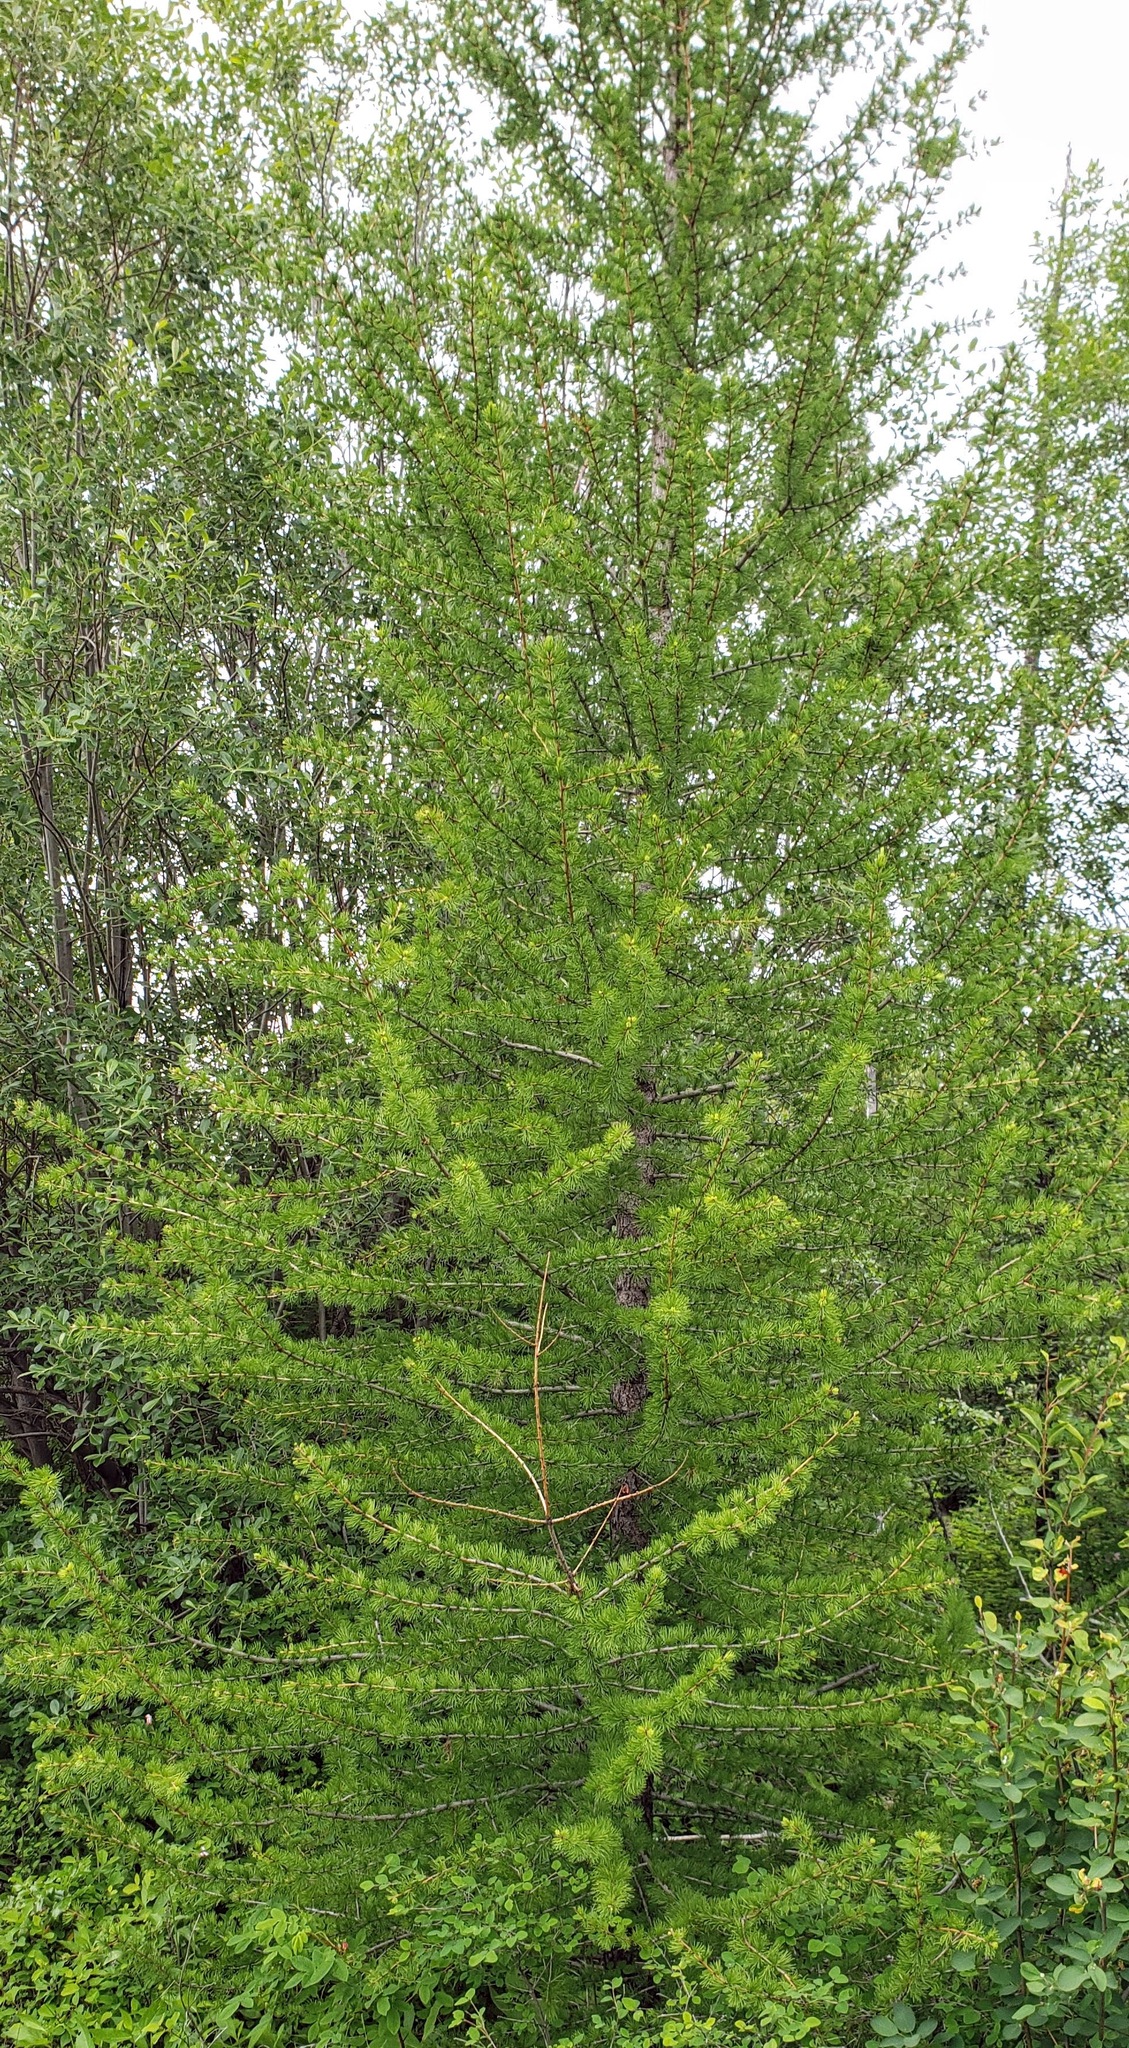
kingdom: Plantae
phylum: Tracheophyta
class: Pinopsida
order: Pinales
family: Pinaceae
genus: Larix
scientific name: Larix occidentalis
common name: Western larch
